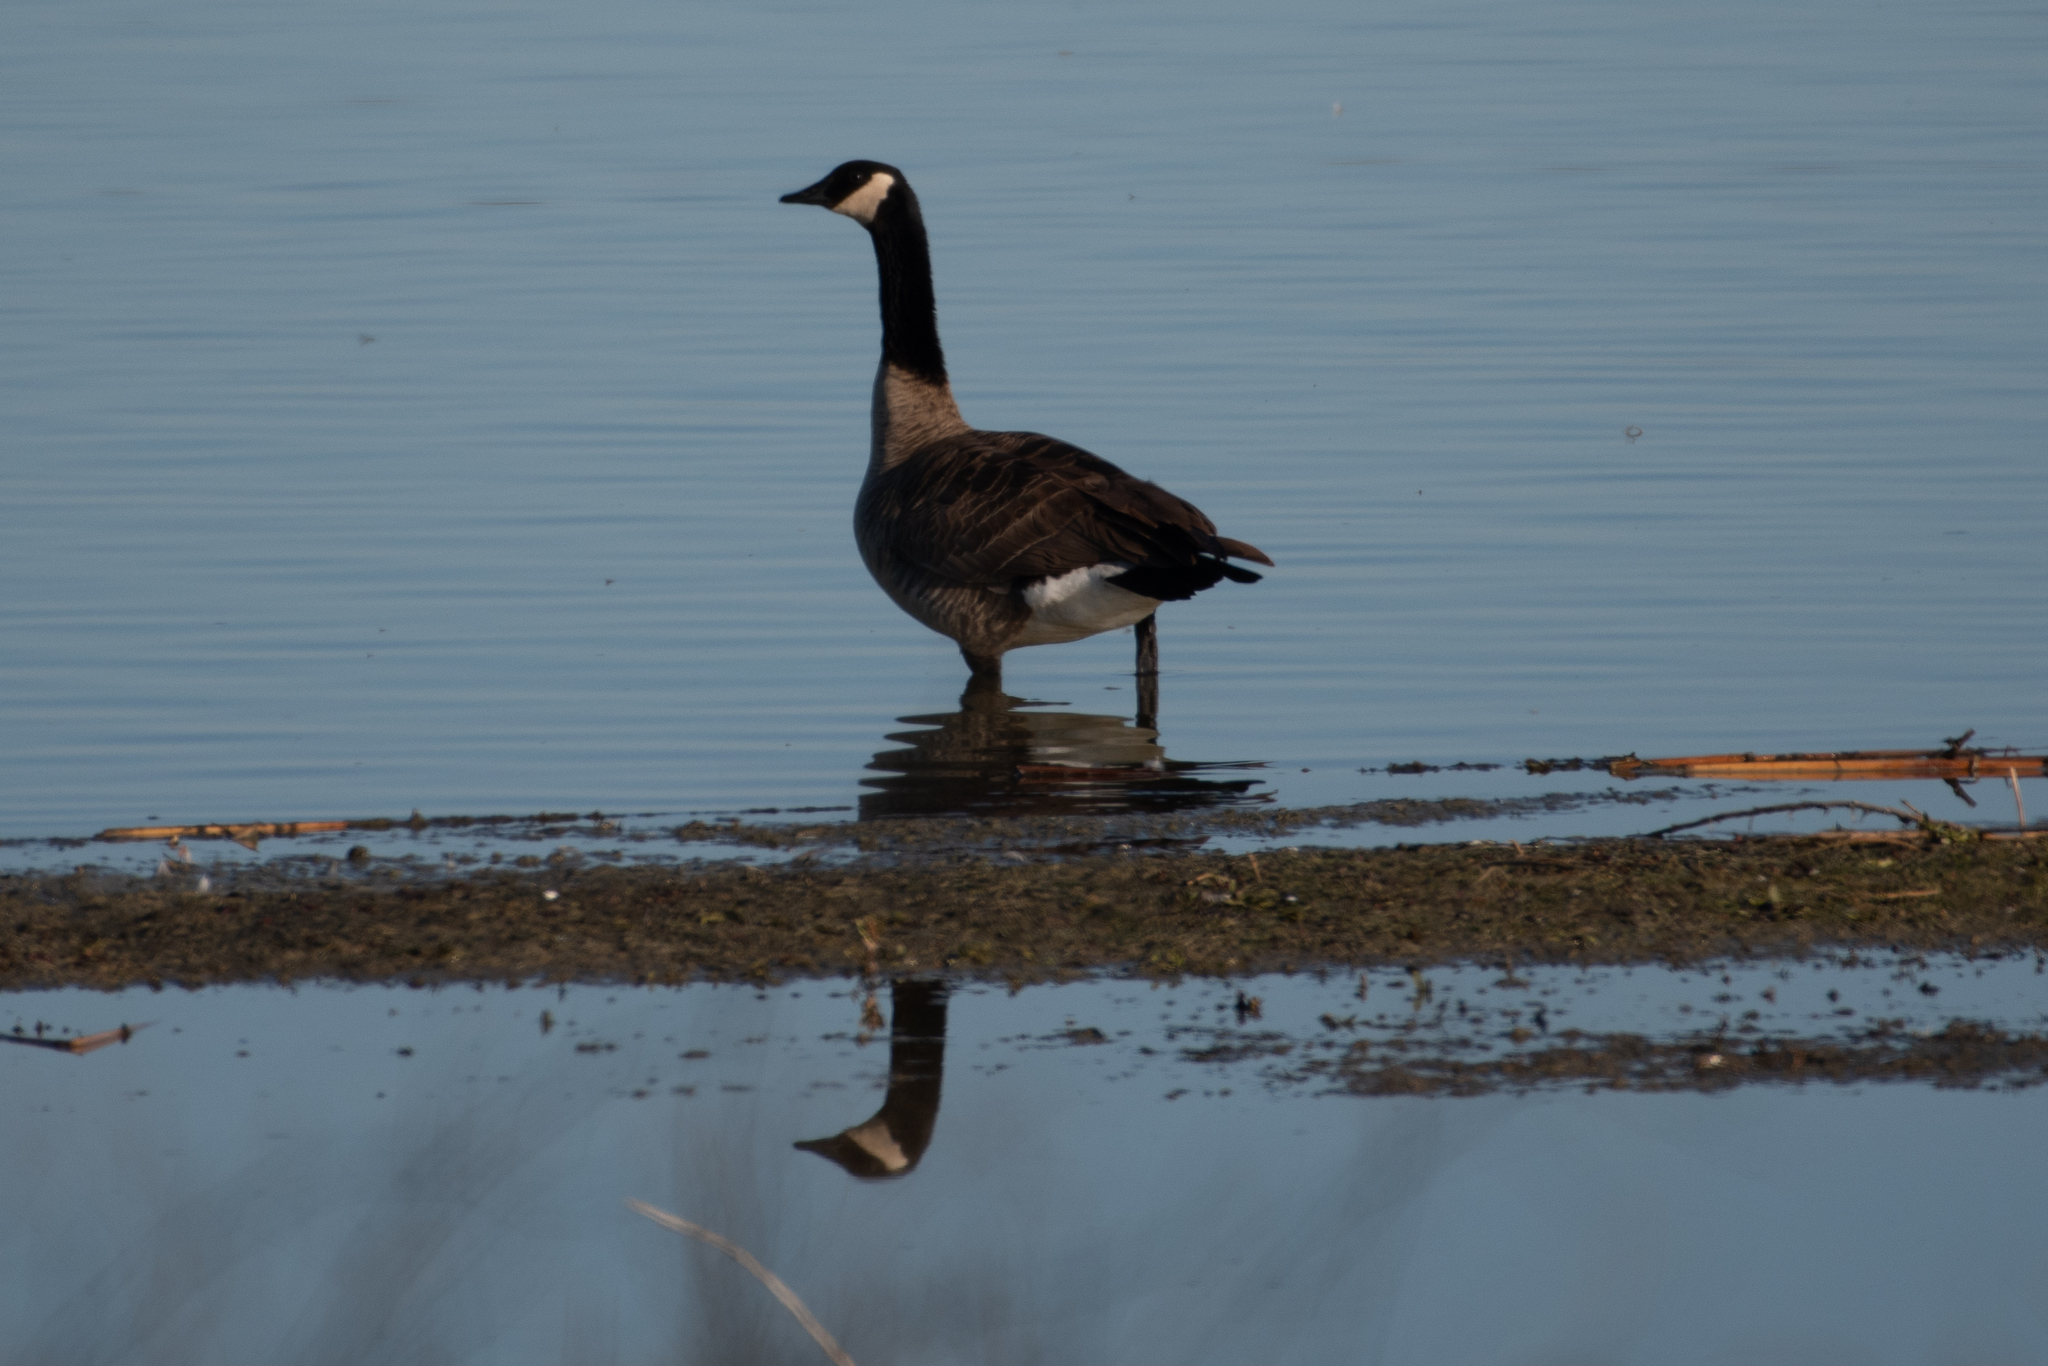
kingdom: Animalia
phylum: Chordata
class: Aves
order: Anseriformes
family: Anatidae
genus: Branta
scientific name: Branta canadensis
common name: Canada goose
